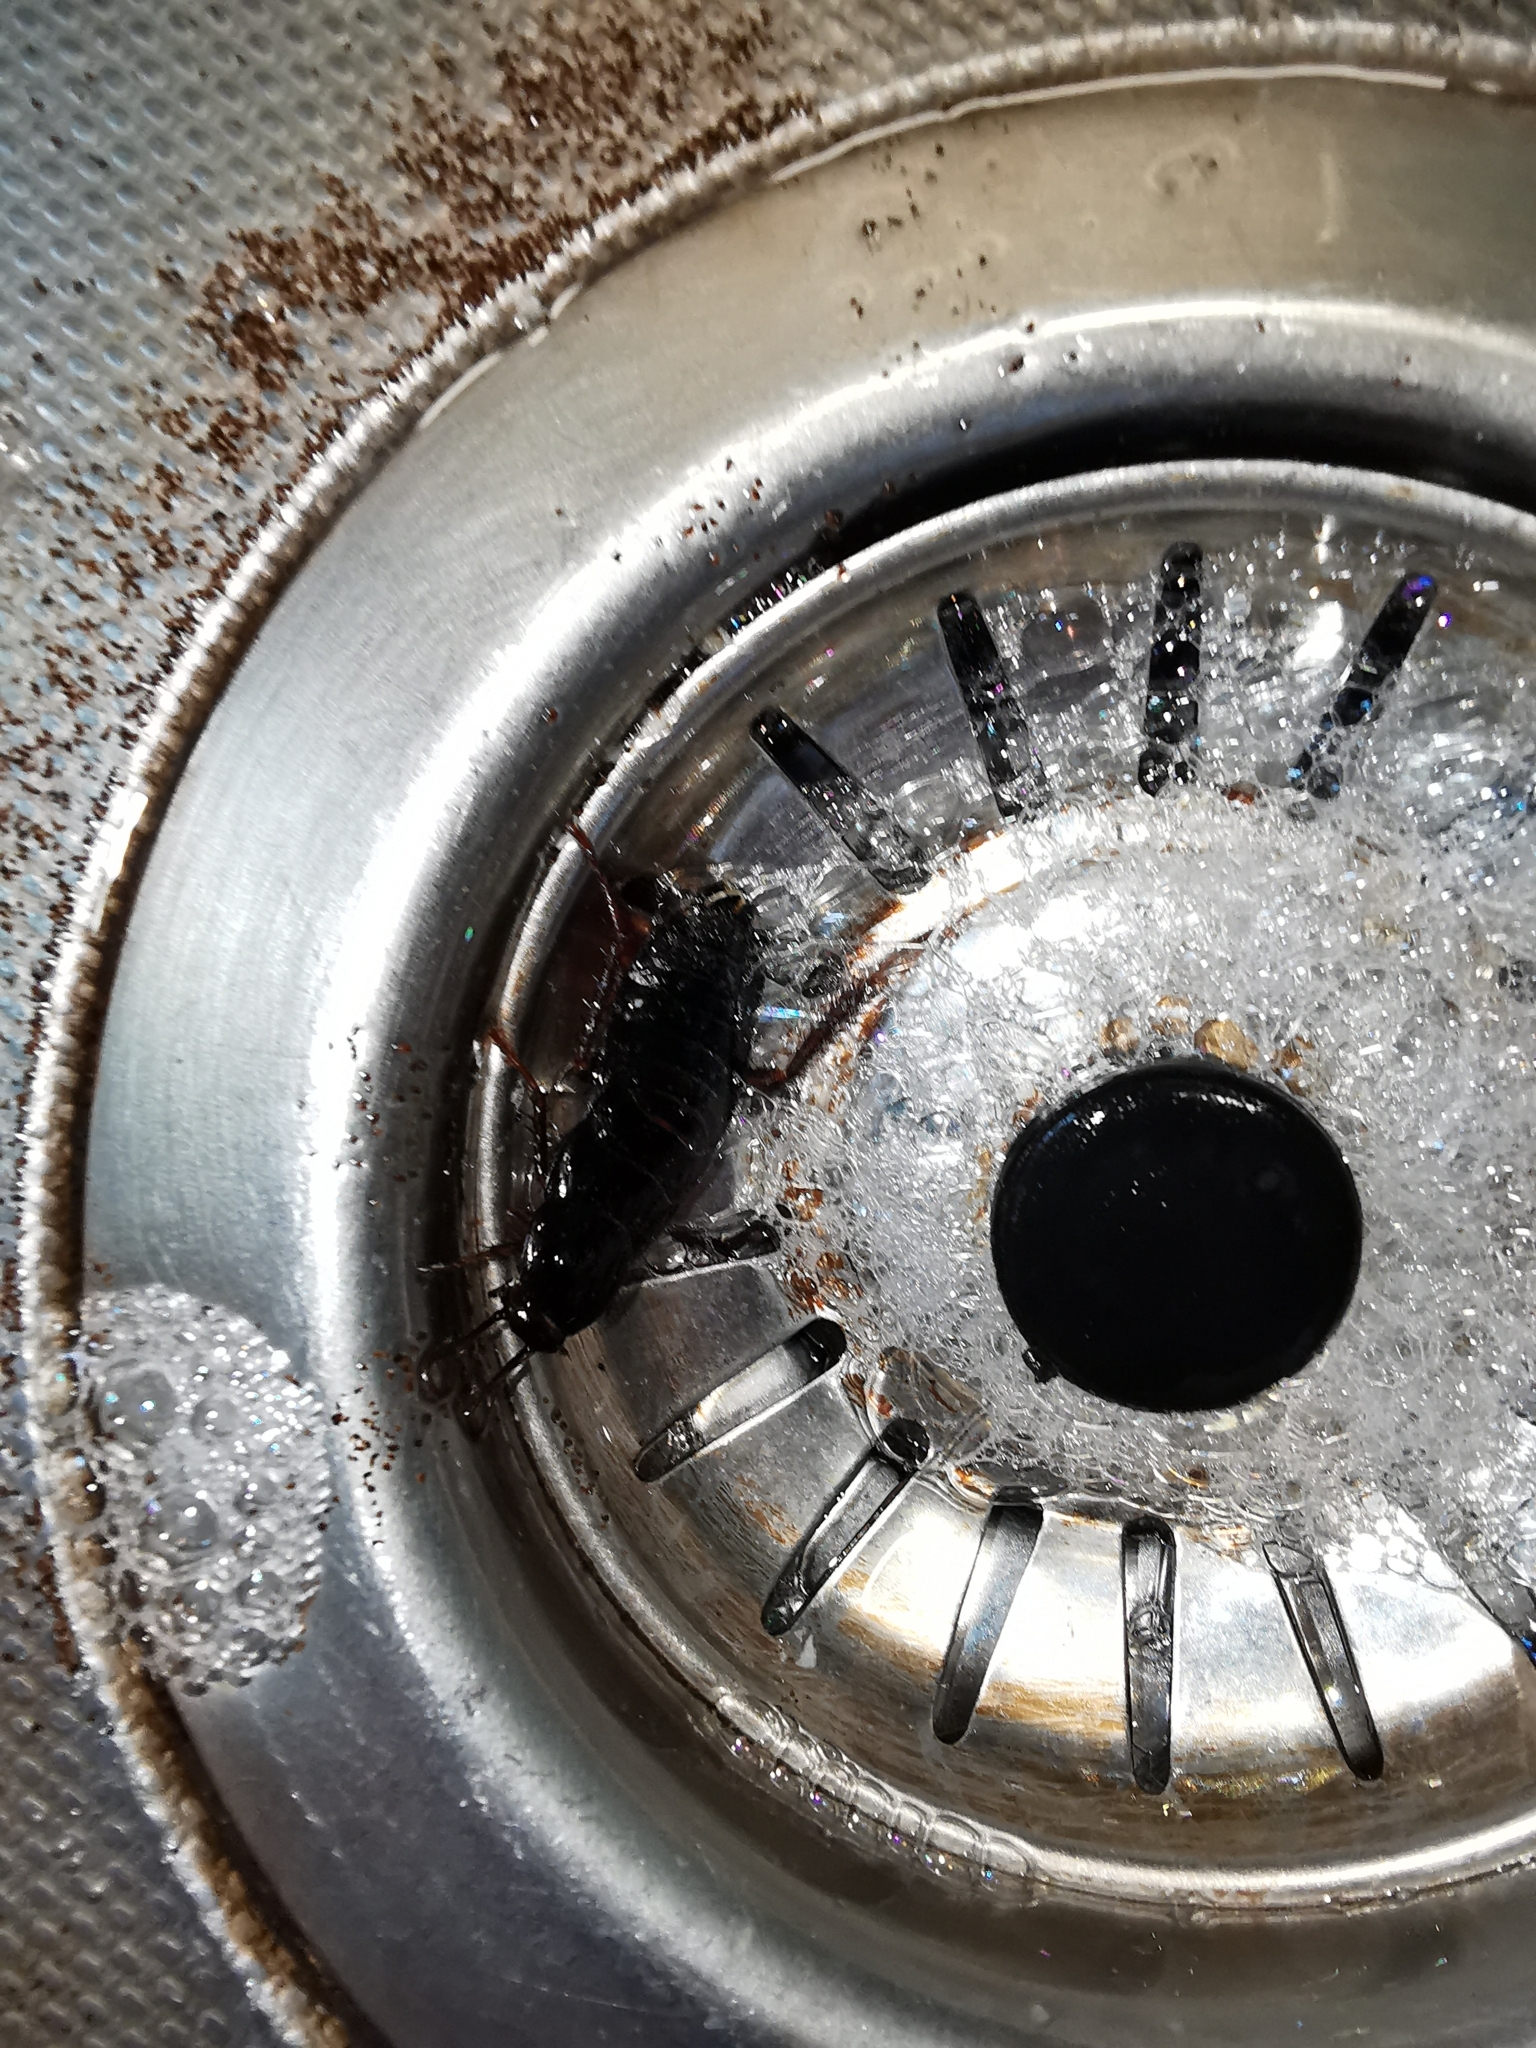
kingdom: Animalia
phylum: Arthropoda
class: Insecta
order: Blattodea
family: Blattidae
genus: Blatta
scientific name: Blatta orientalis
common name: Oriental cockroach
